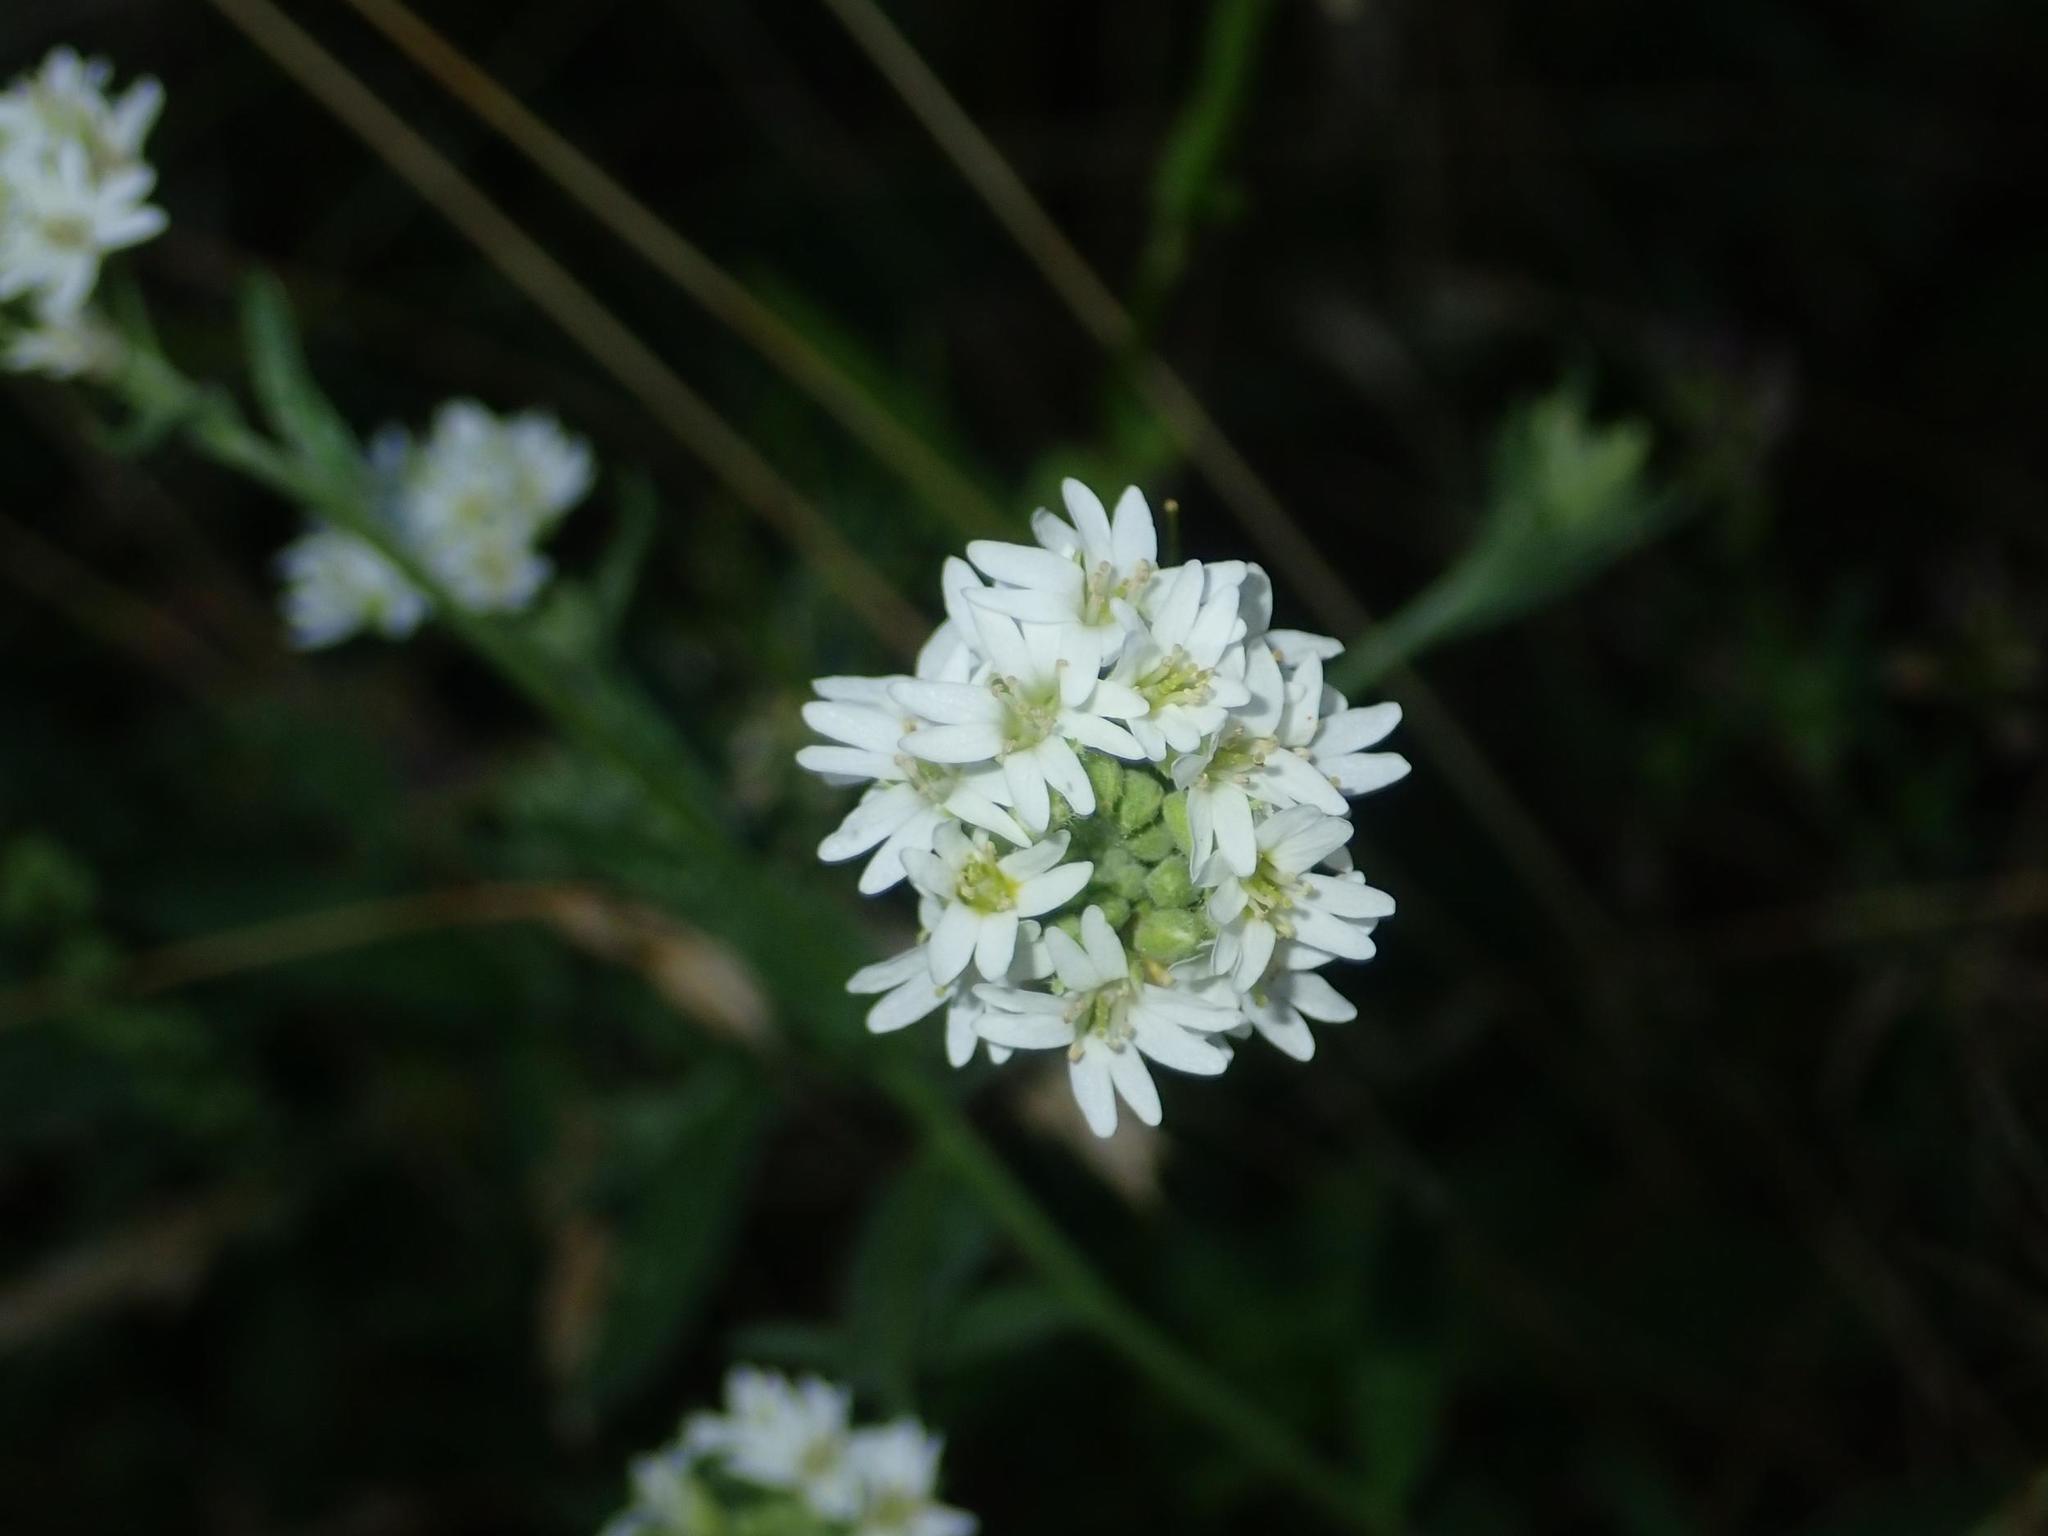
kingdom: Plantae
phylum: Tracheophyta
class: Magnoliopsida
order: Brassicales
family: Brassicaceae
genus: Berteroa
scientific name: Berteroa incana
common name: Hoary alison
